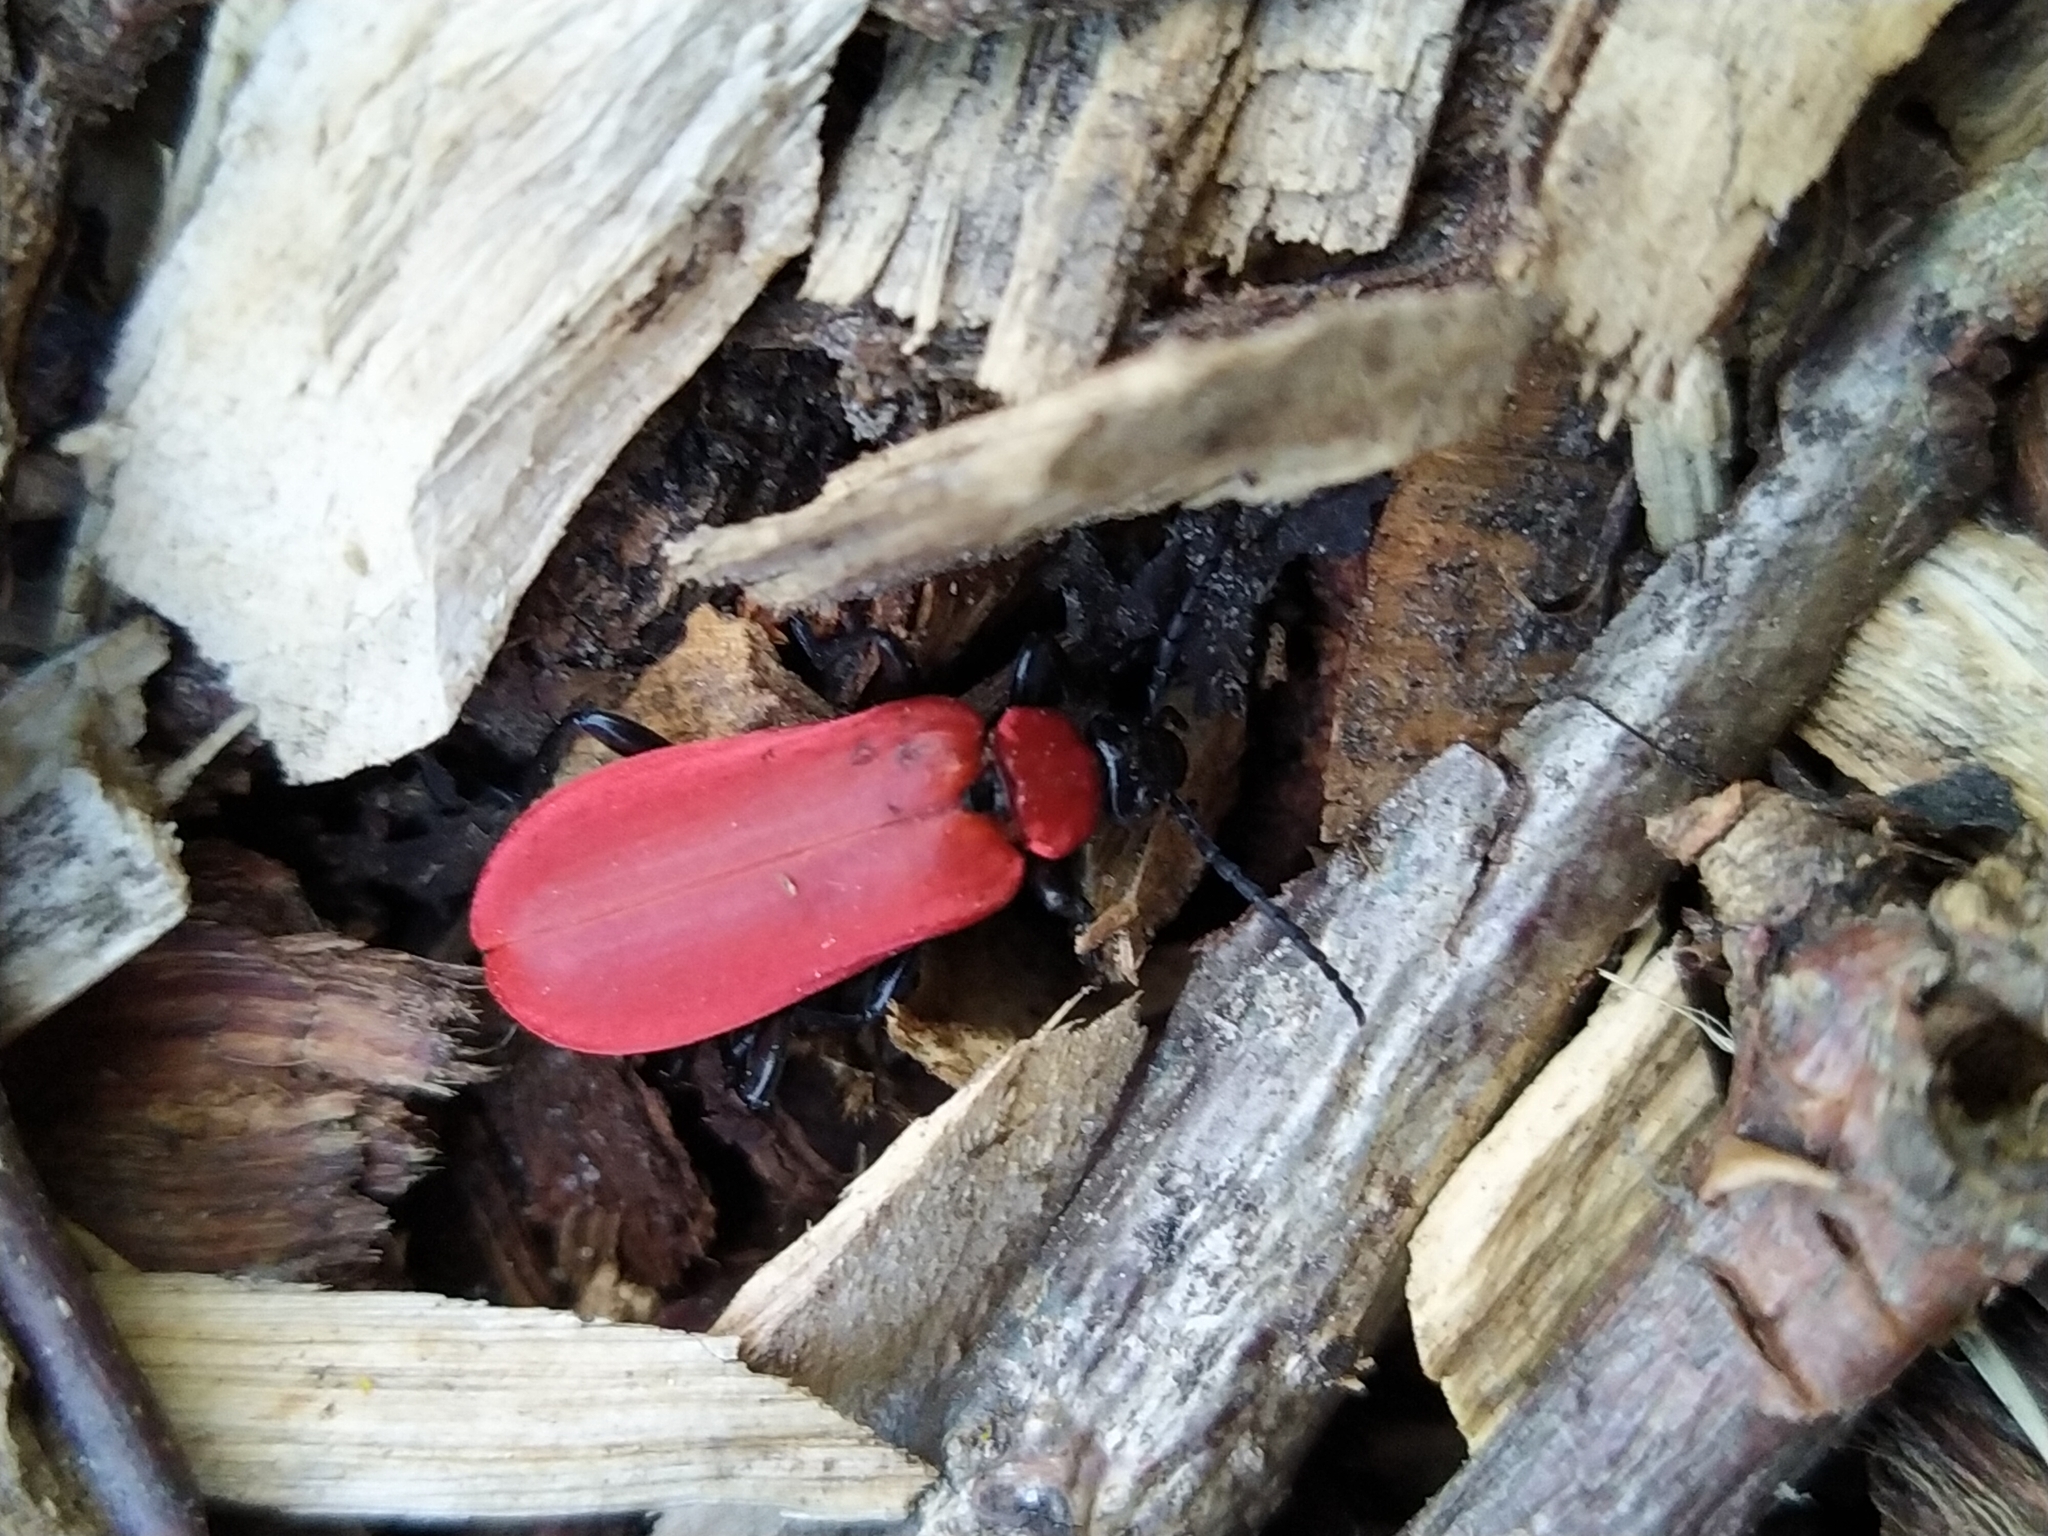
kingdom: Animalia
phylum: Arthropoda
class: Insecta
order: Coleoptera
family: Pyrochroidae
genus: Pyrochroa
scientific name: Pyrochroa coccinea
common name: Black-headed cardinal beetle
